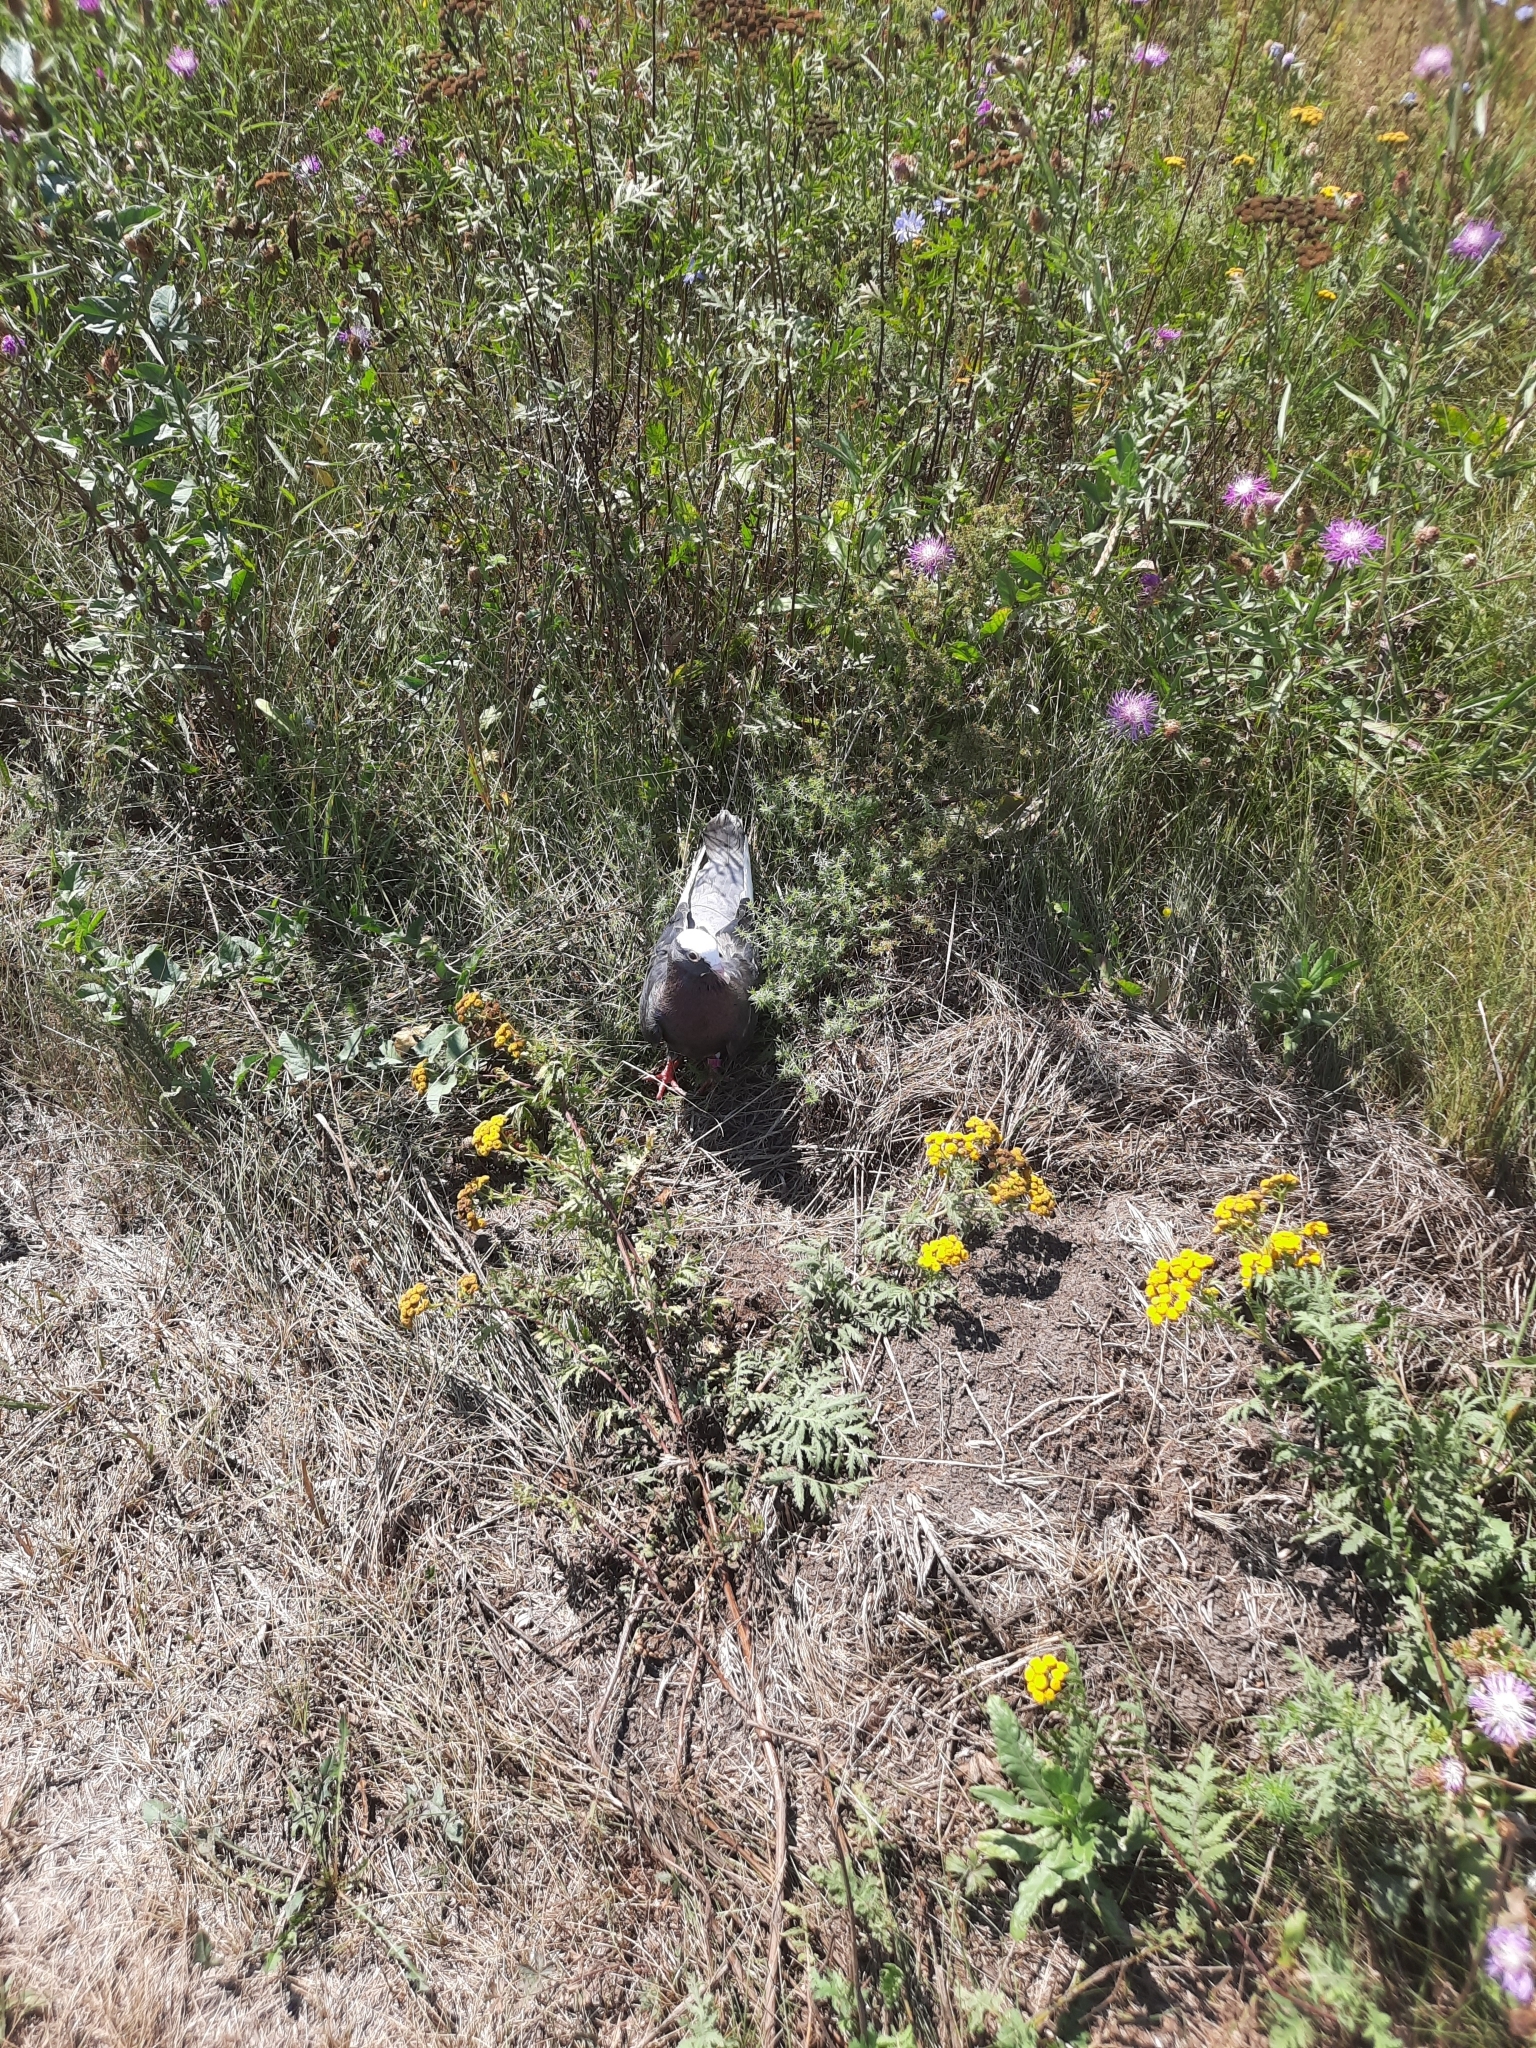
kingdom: Animalia
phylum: Chordata
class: Aves
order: Columbiformes
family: Columbidae
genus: Columba
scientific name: Columba livia
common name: Rock pigeon
